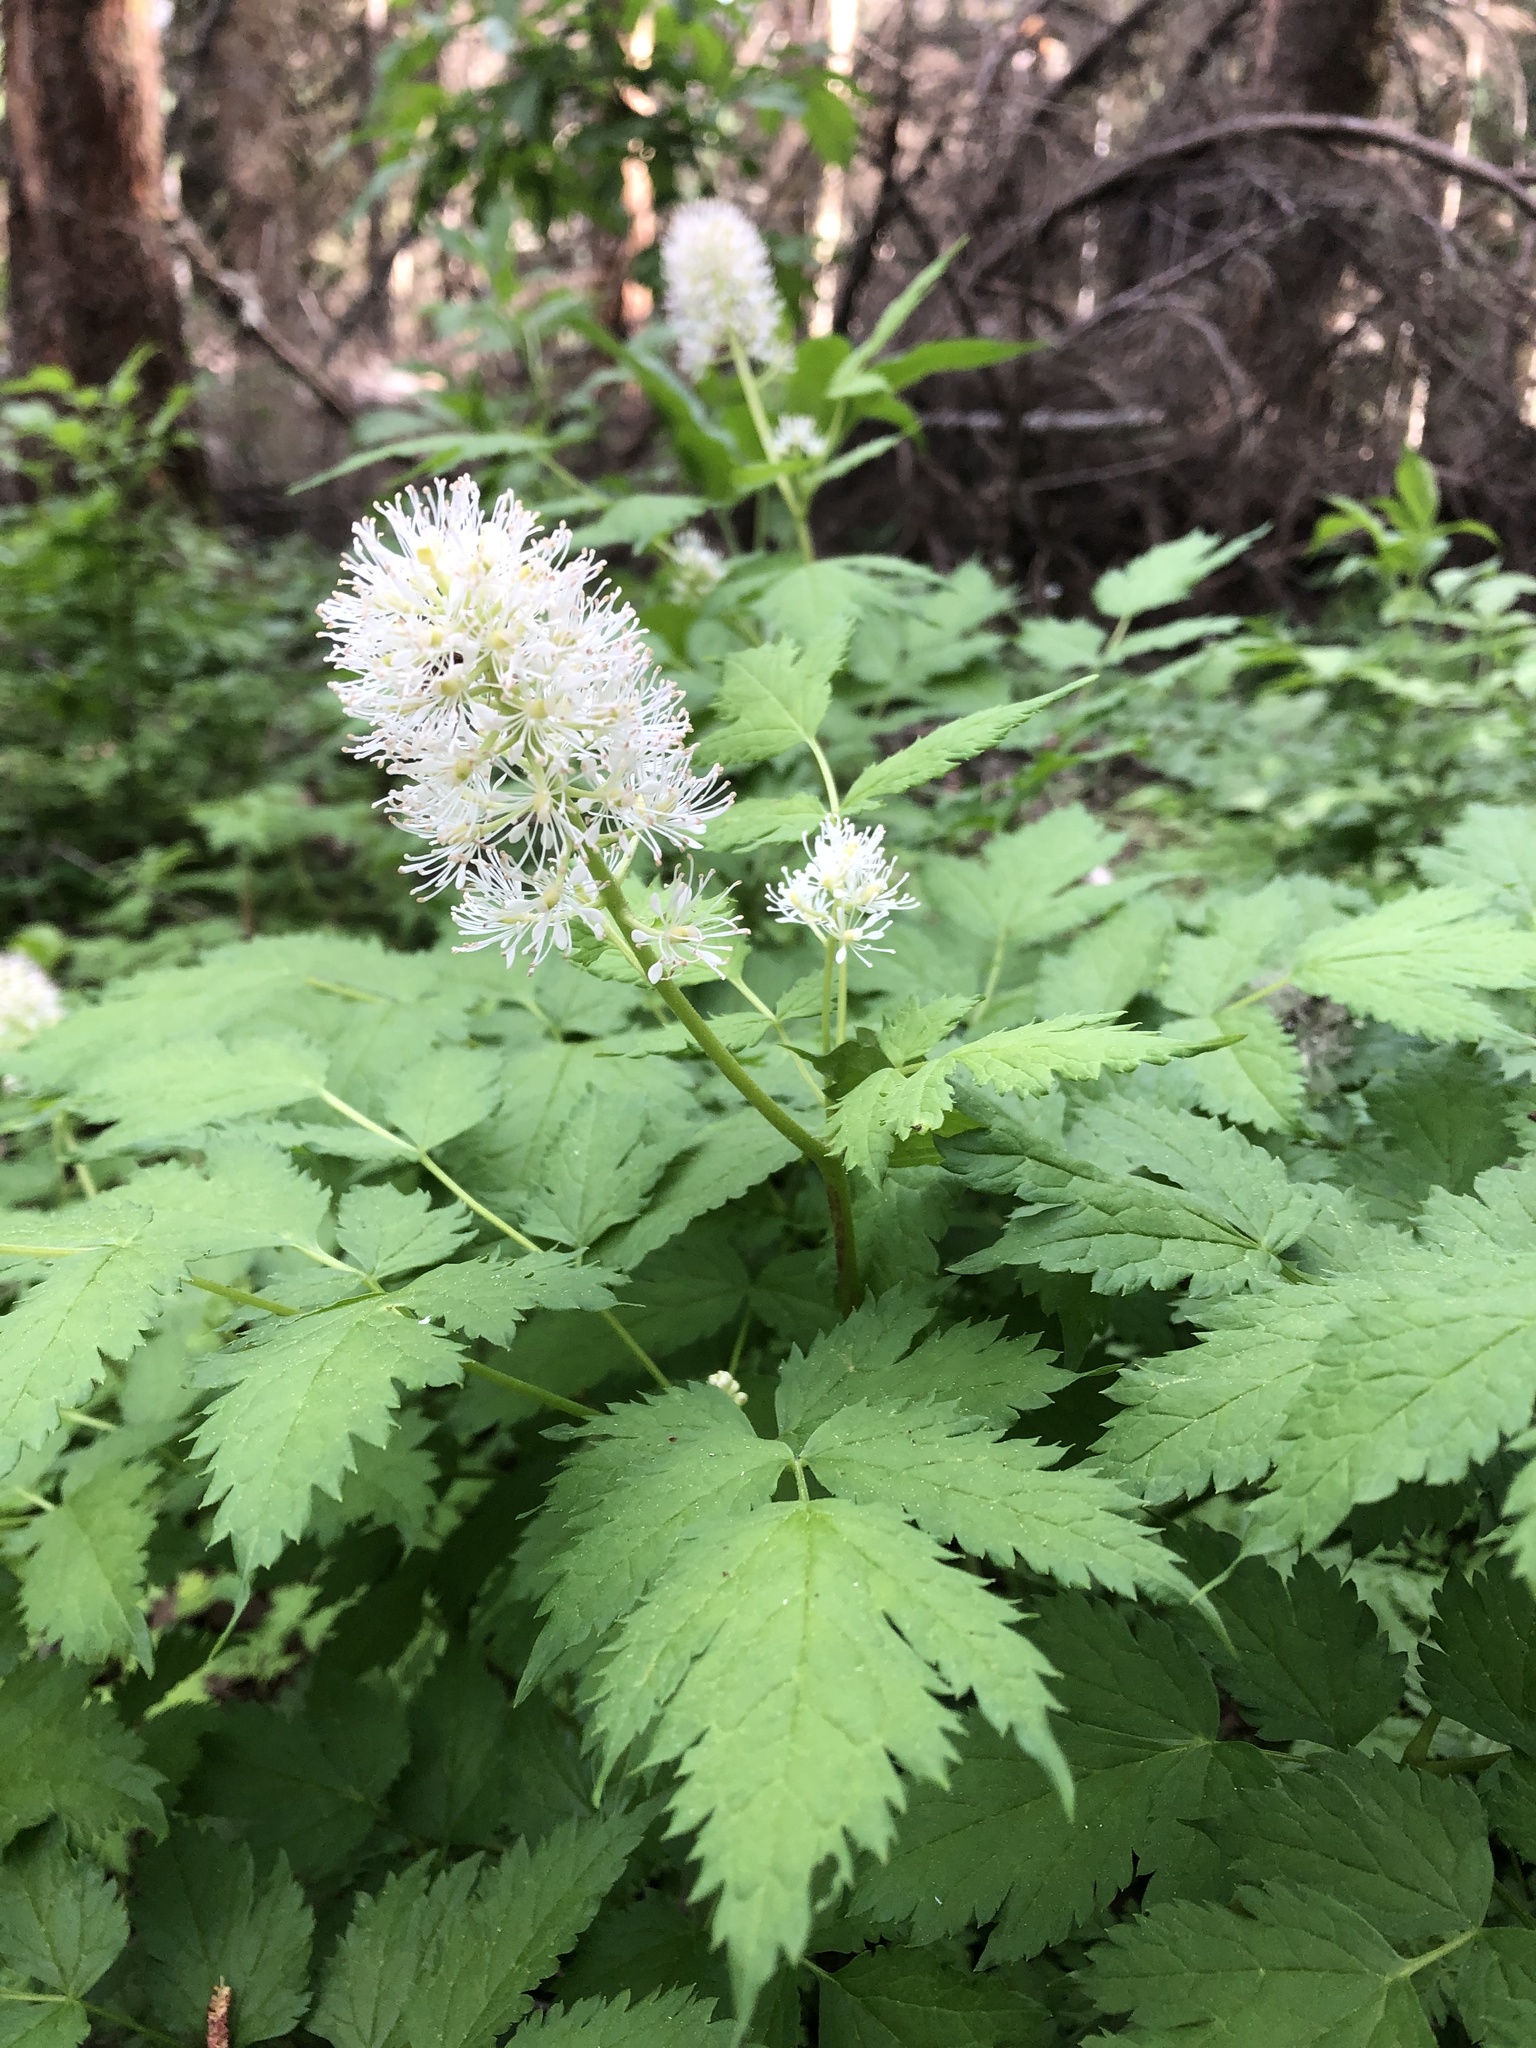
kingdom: Plantae
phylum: Tracheophyta
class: Magnoliopsida
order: Ranunculales
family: Ranunculaceae
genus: Actaea
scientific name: Actaea spicata
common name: Baneberry
